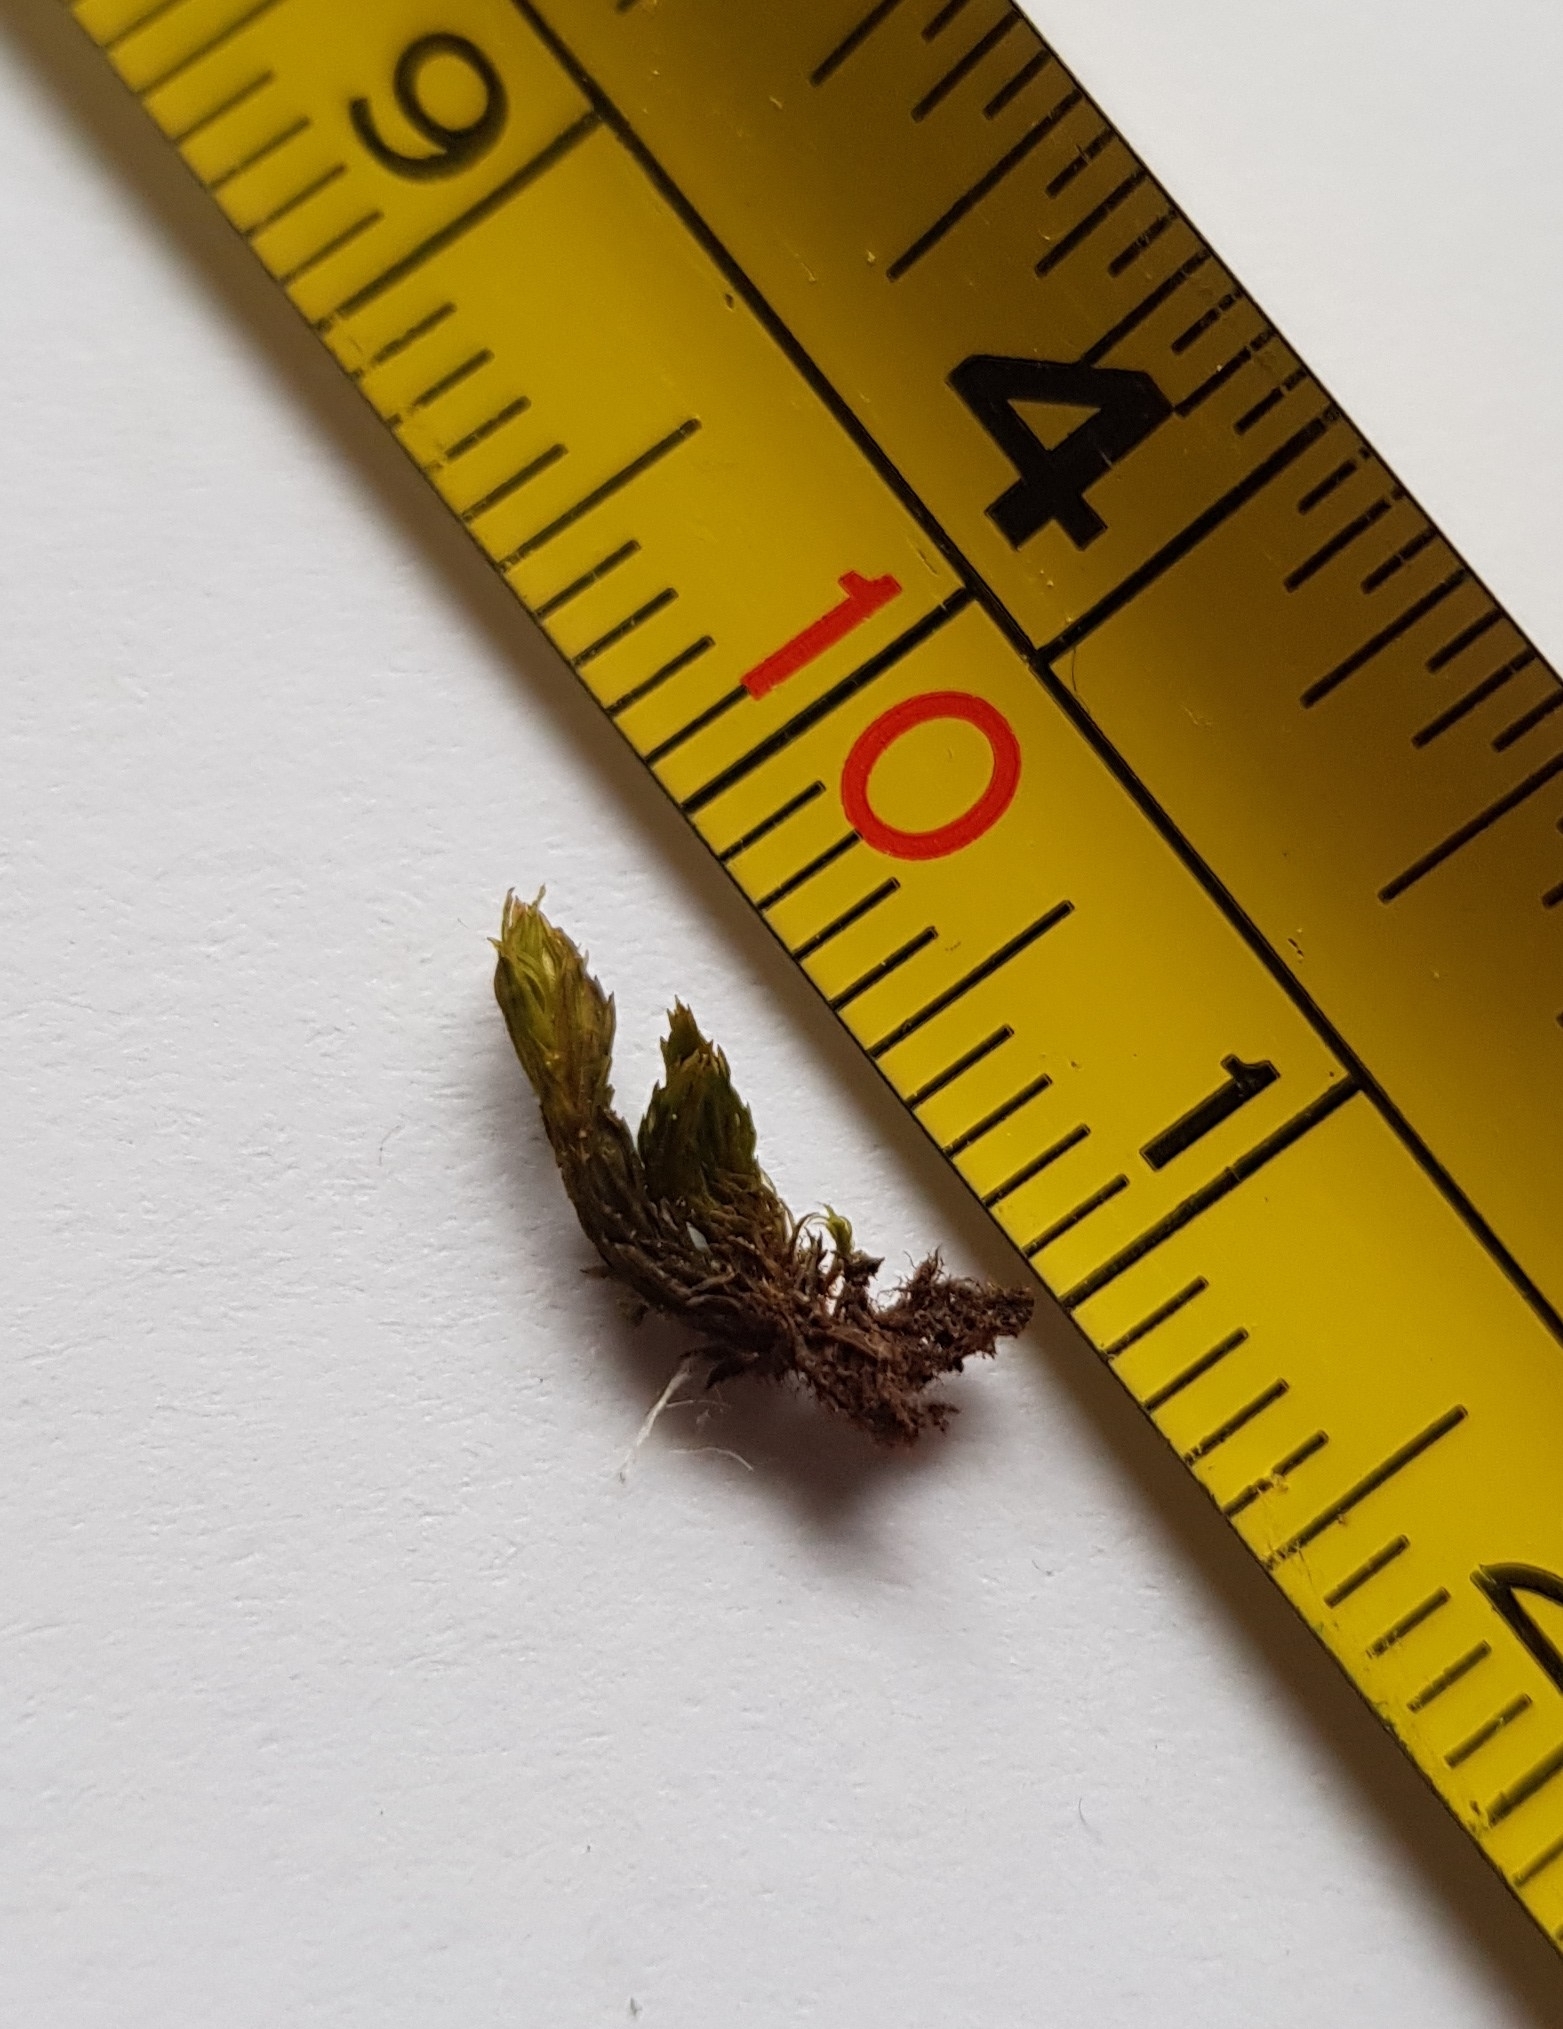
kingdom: Plantae
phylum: Bryophyta
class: Bryopsida
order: Orthotrichales
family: Orthotrichaceae
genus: Lewinskya
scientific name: Lewinskya affinis
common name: Wood bristle-moss
